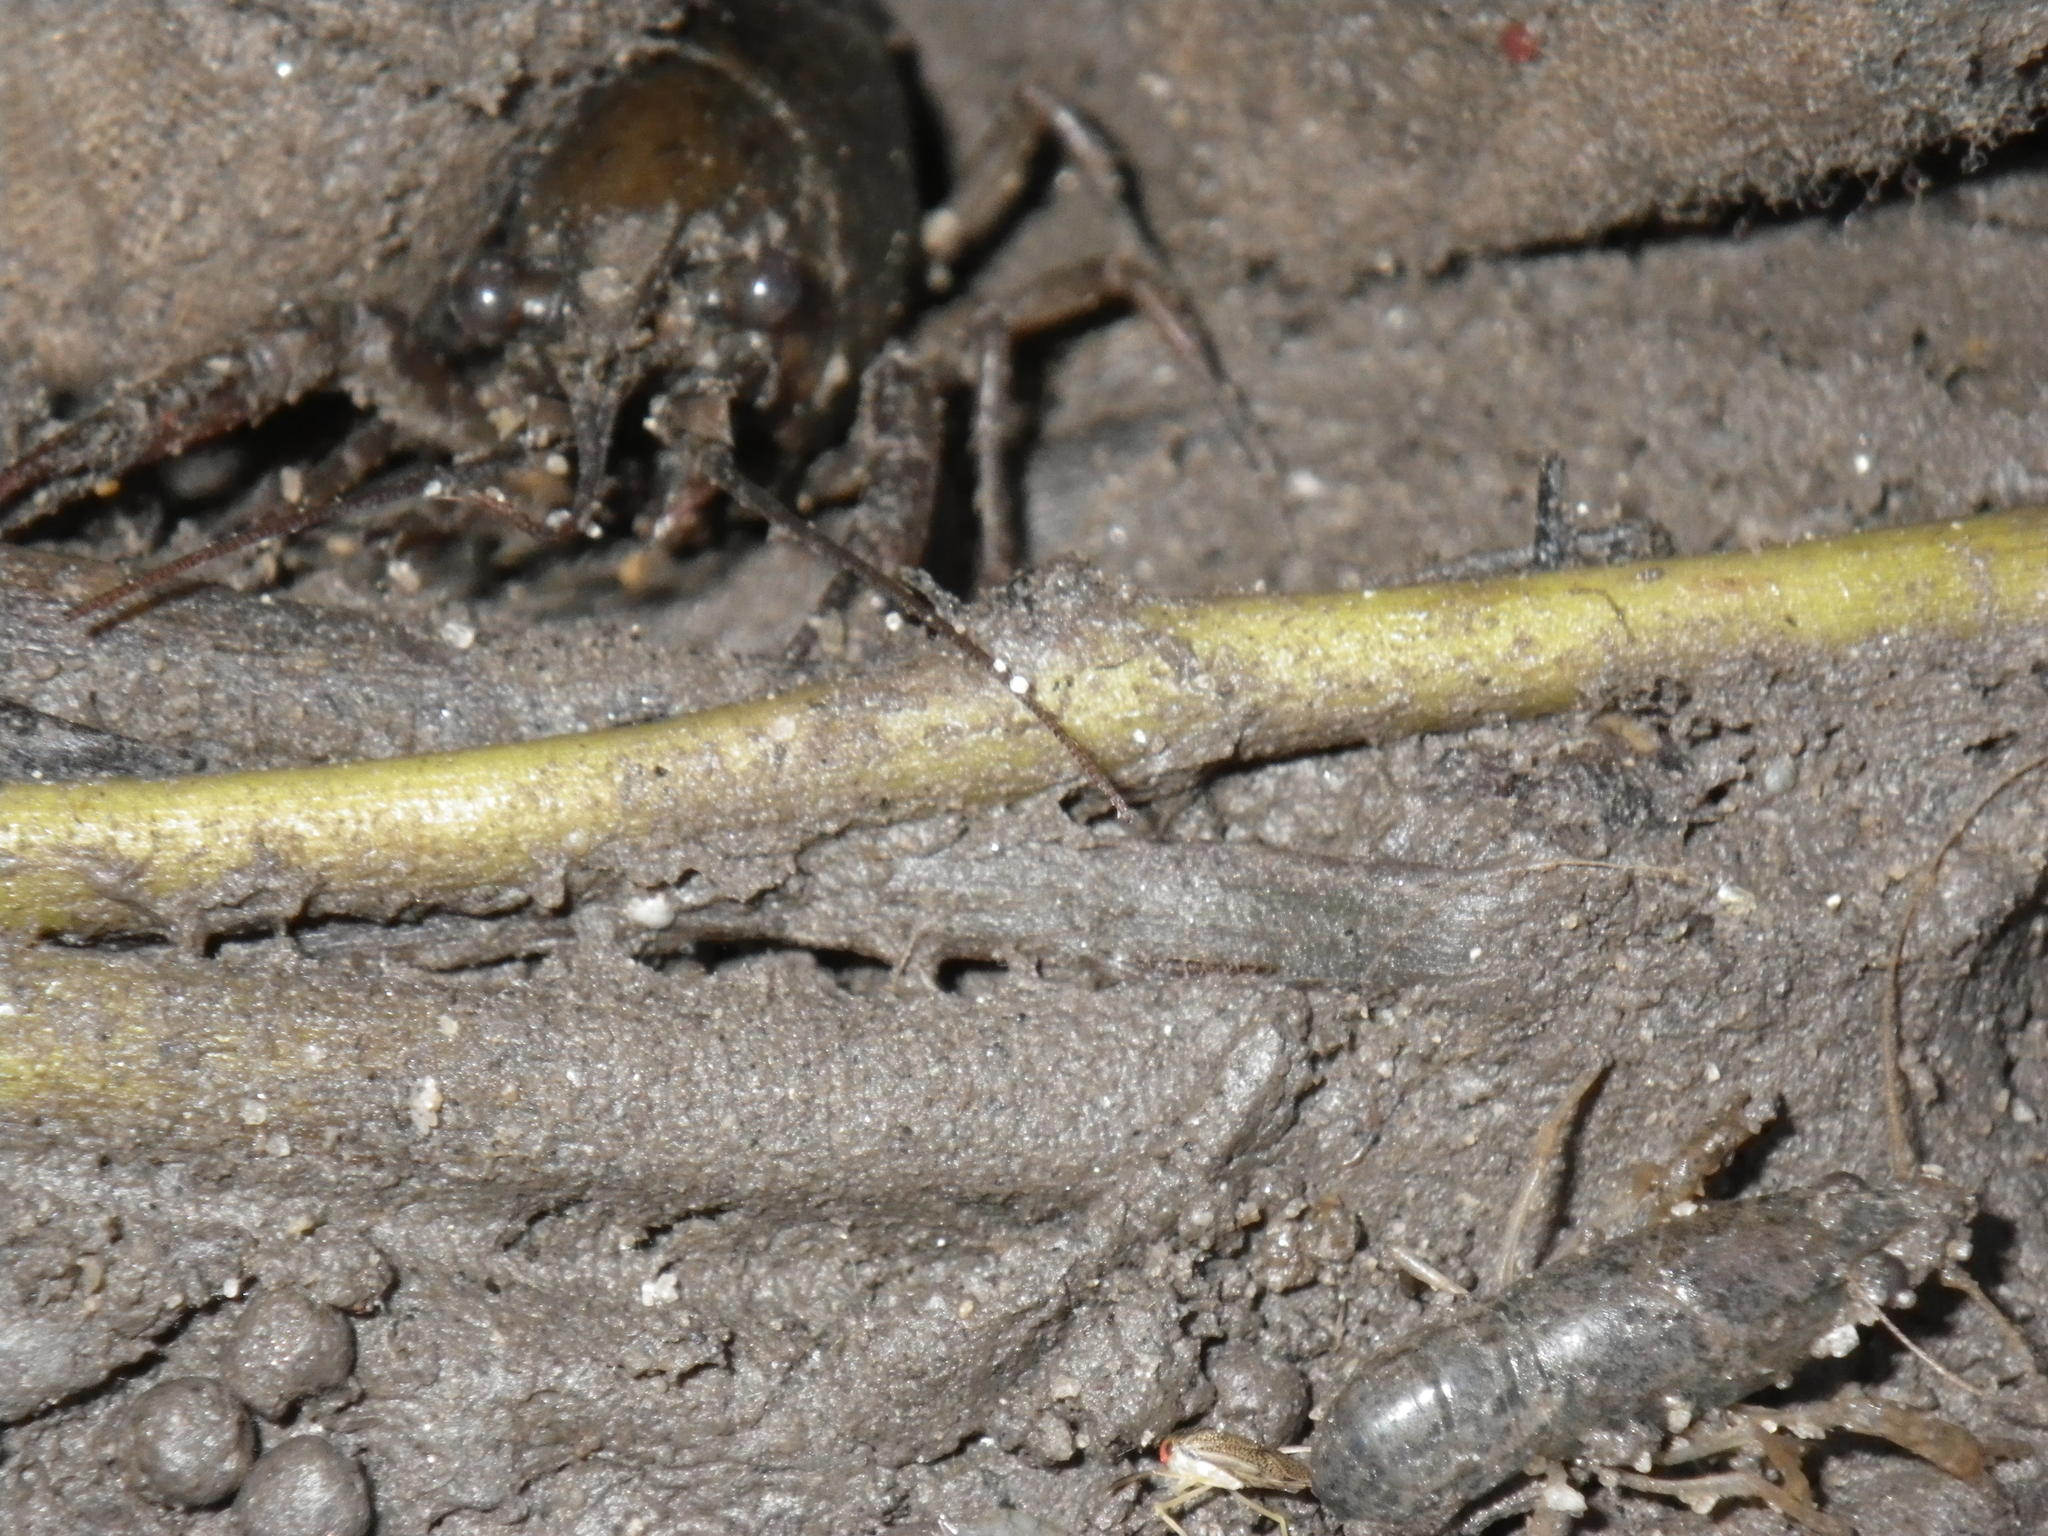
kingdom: Animalia
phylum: Arthropoda
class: Malacostraca
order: Decapoda
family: Cambaridae
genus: Procambarus
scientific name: Procambarus clarkii
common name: Red swamp crayfish
